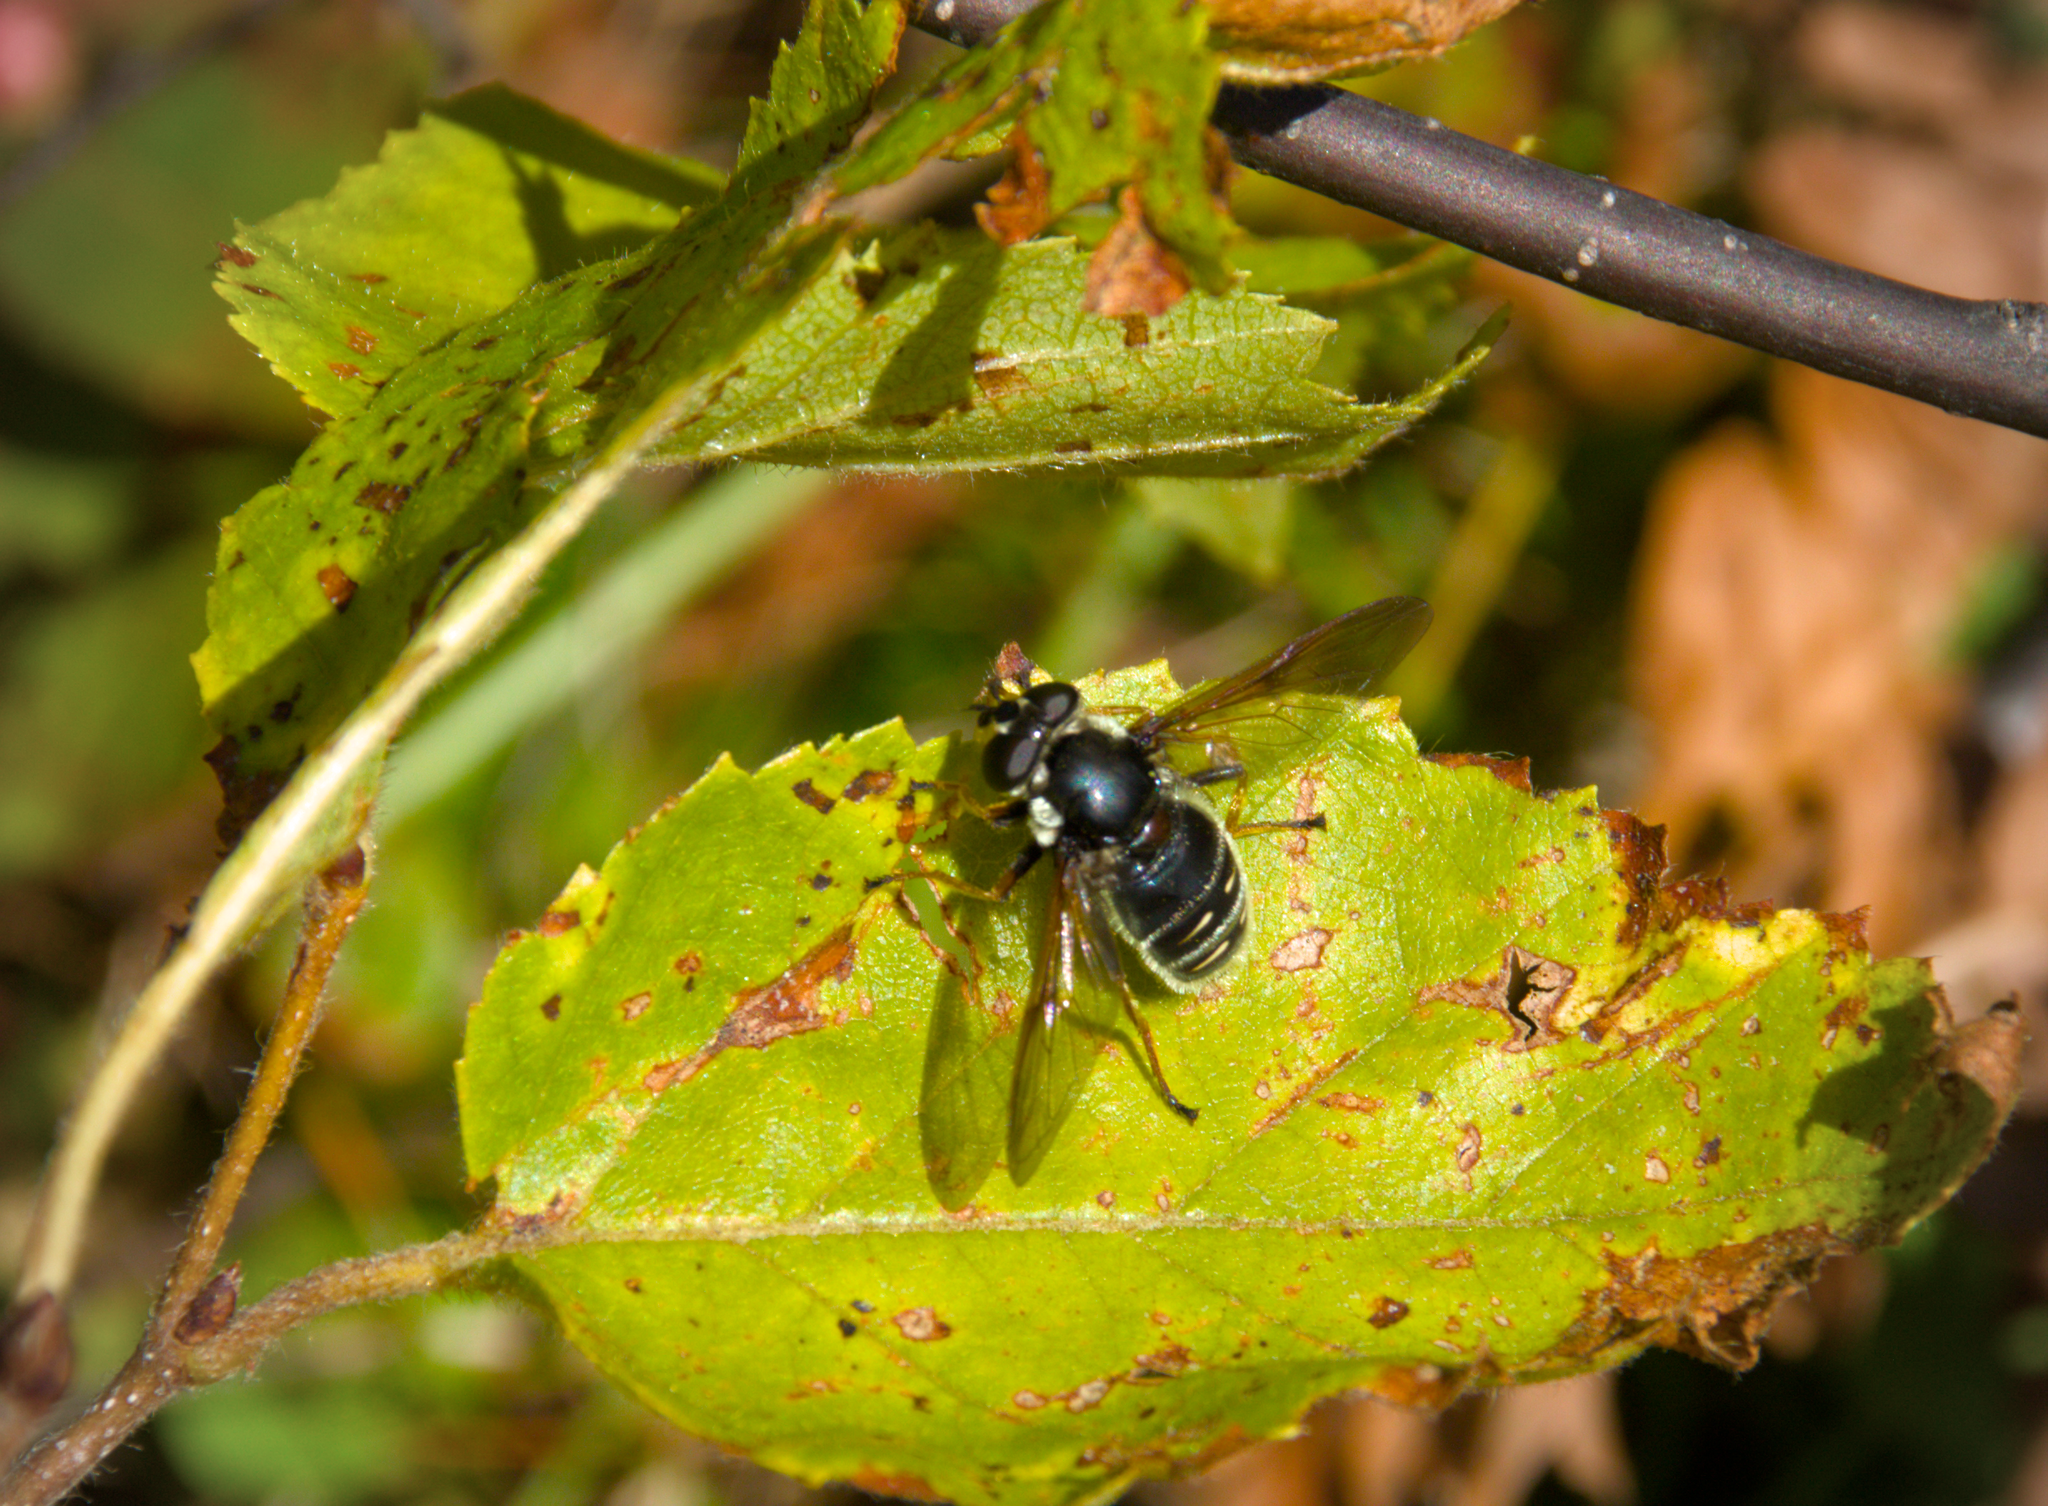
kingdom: Animalia
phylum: Arthropoda
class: Insecta
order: Diptera
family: Syrphidae
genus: Sericomyia
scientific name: Sericomyia militaris
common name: Narrow-banded pond fly
